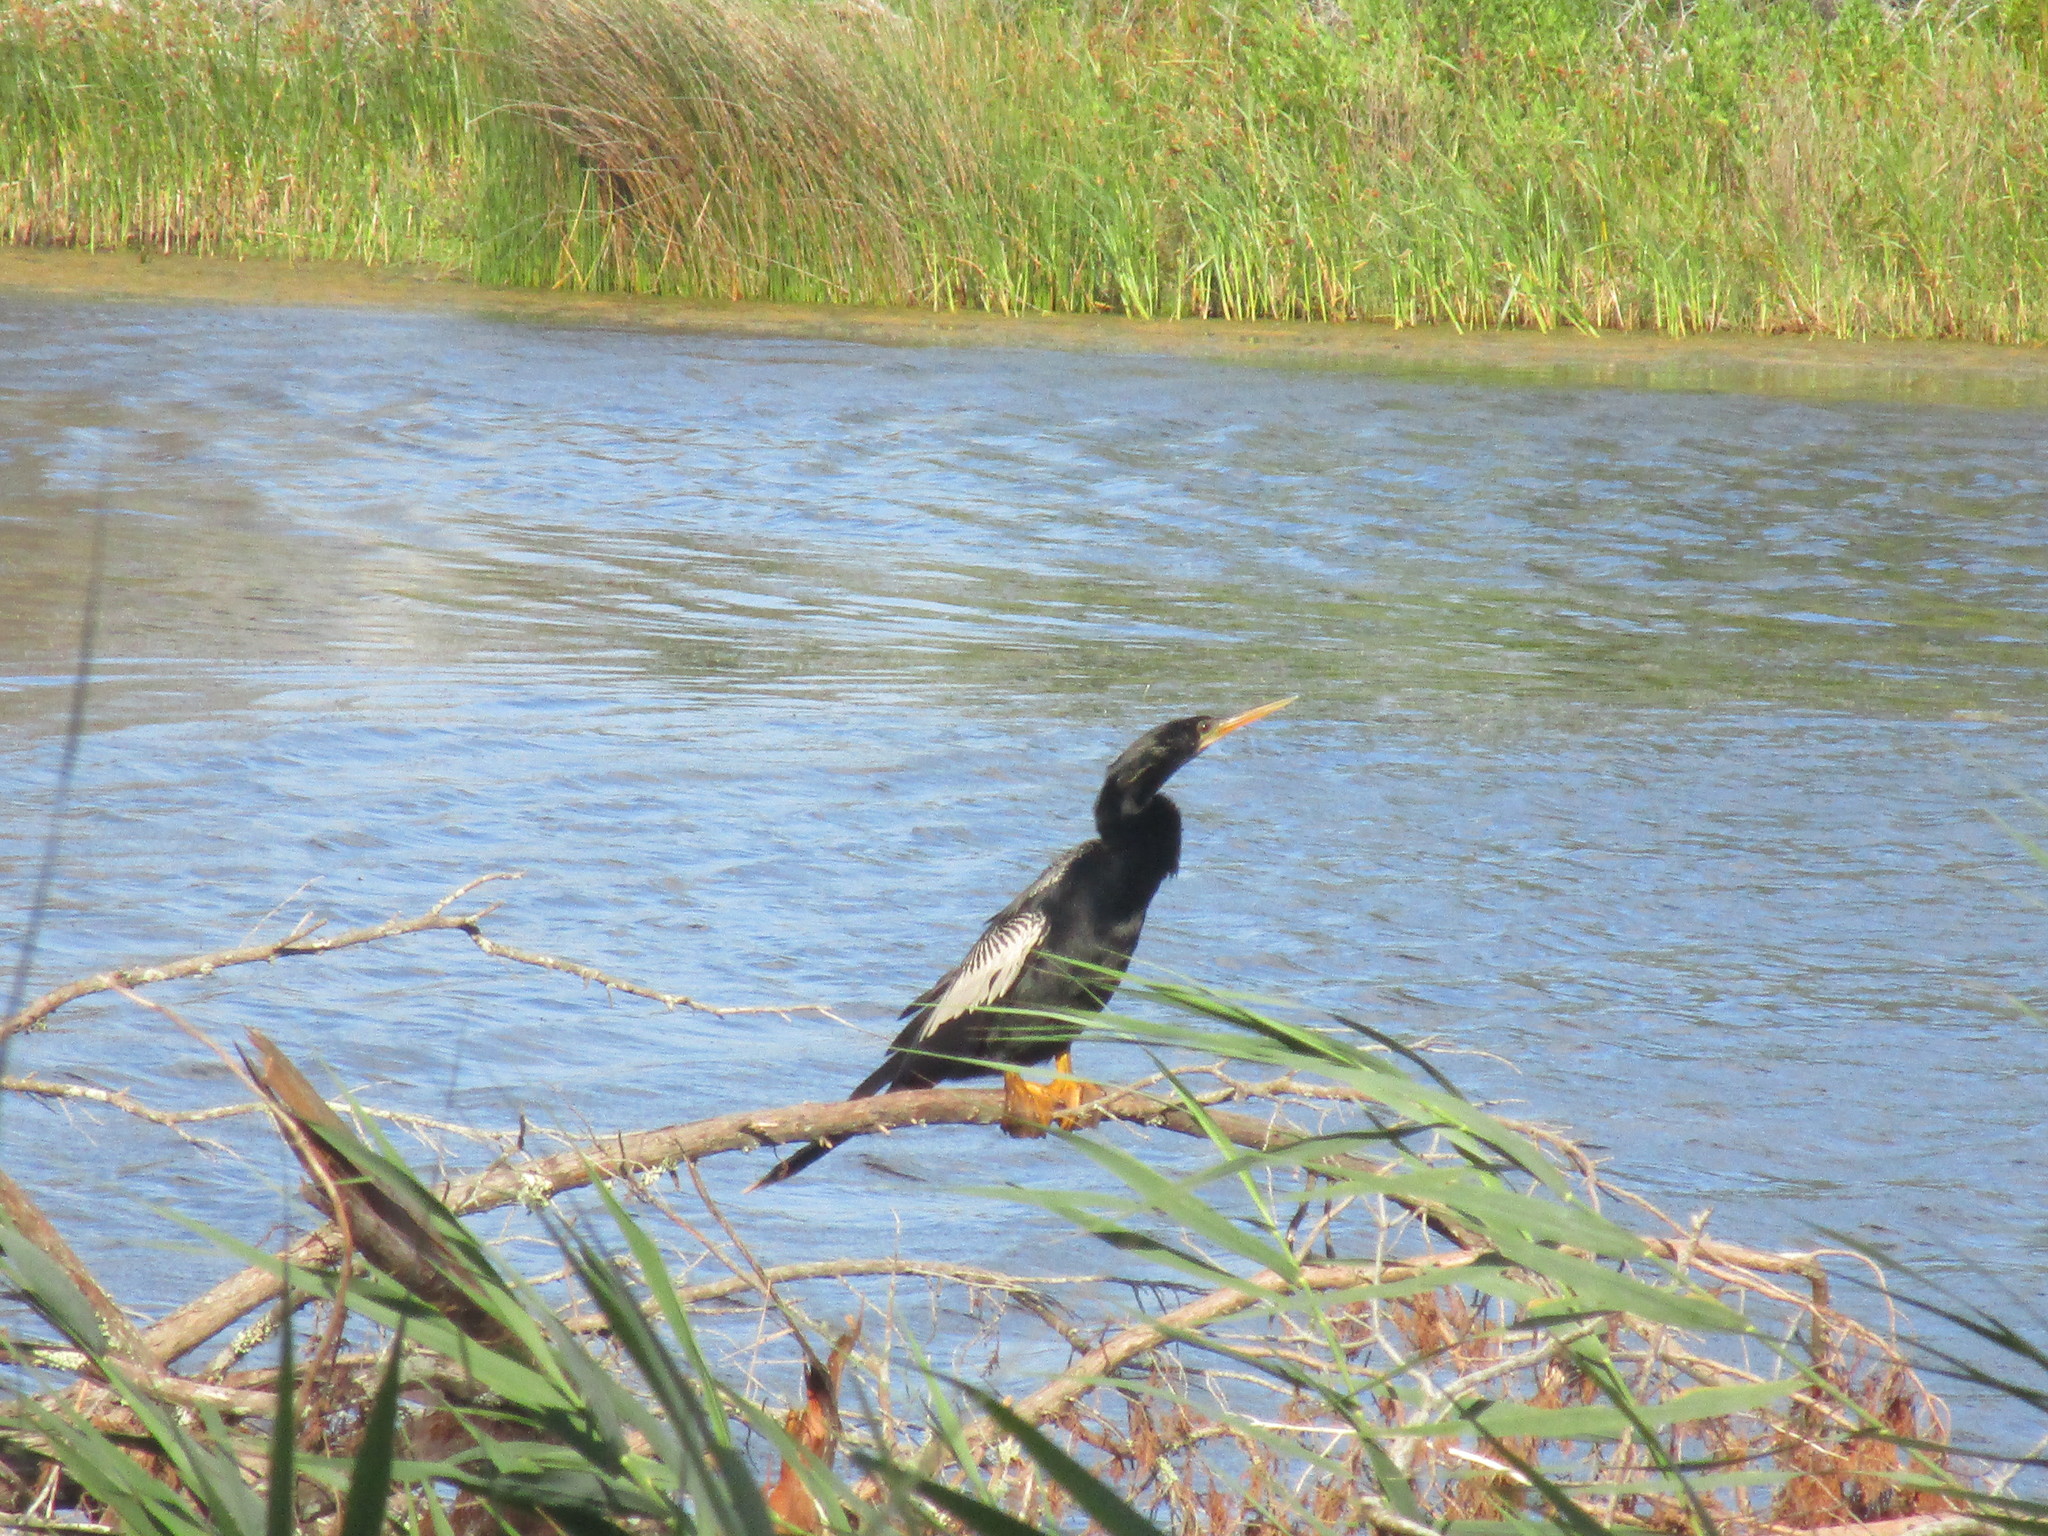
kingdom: Animalia
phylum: Chordata
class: Aves
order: Suliformes
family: Anhingidae
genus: Anhinga
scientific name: Anhinga anhinga
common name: Anhinga
